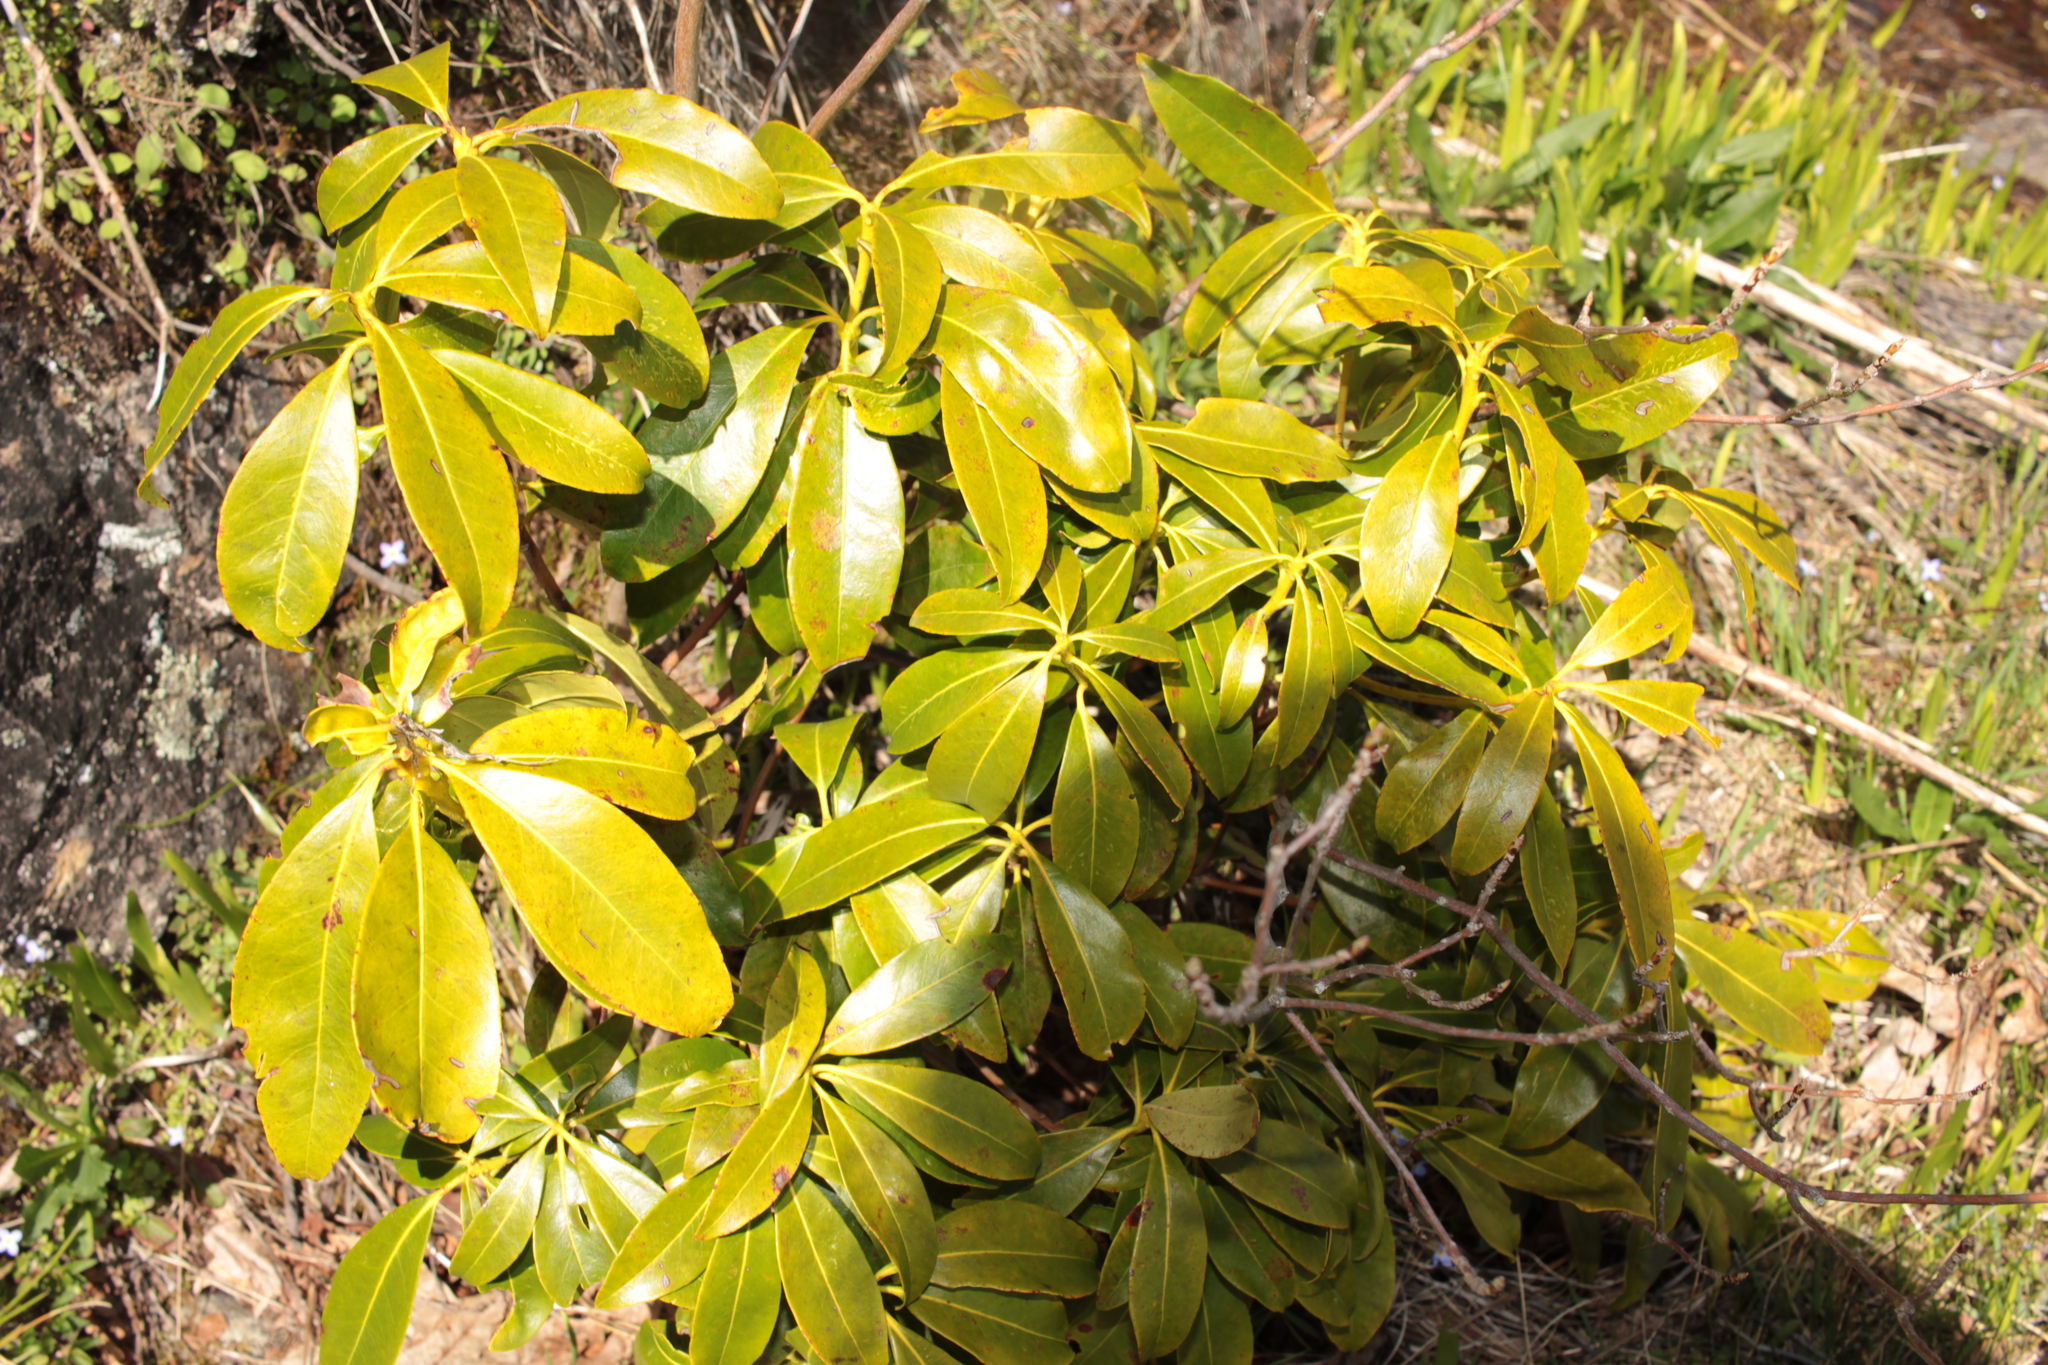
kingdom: Plantae
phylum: Tracheophyta
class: Magnoliopsida
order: Ericales
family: Ericaceae
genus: Kalmia
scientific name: Kalmia latifolia
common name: Mountain-laurel
